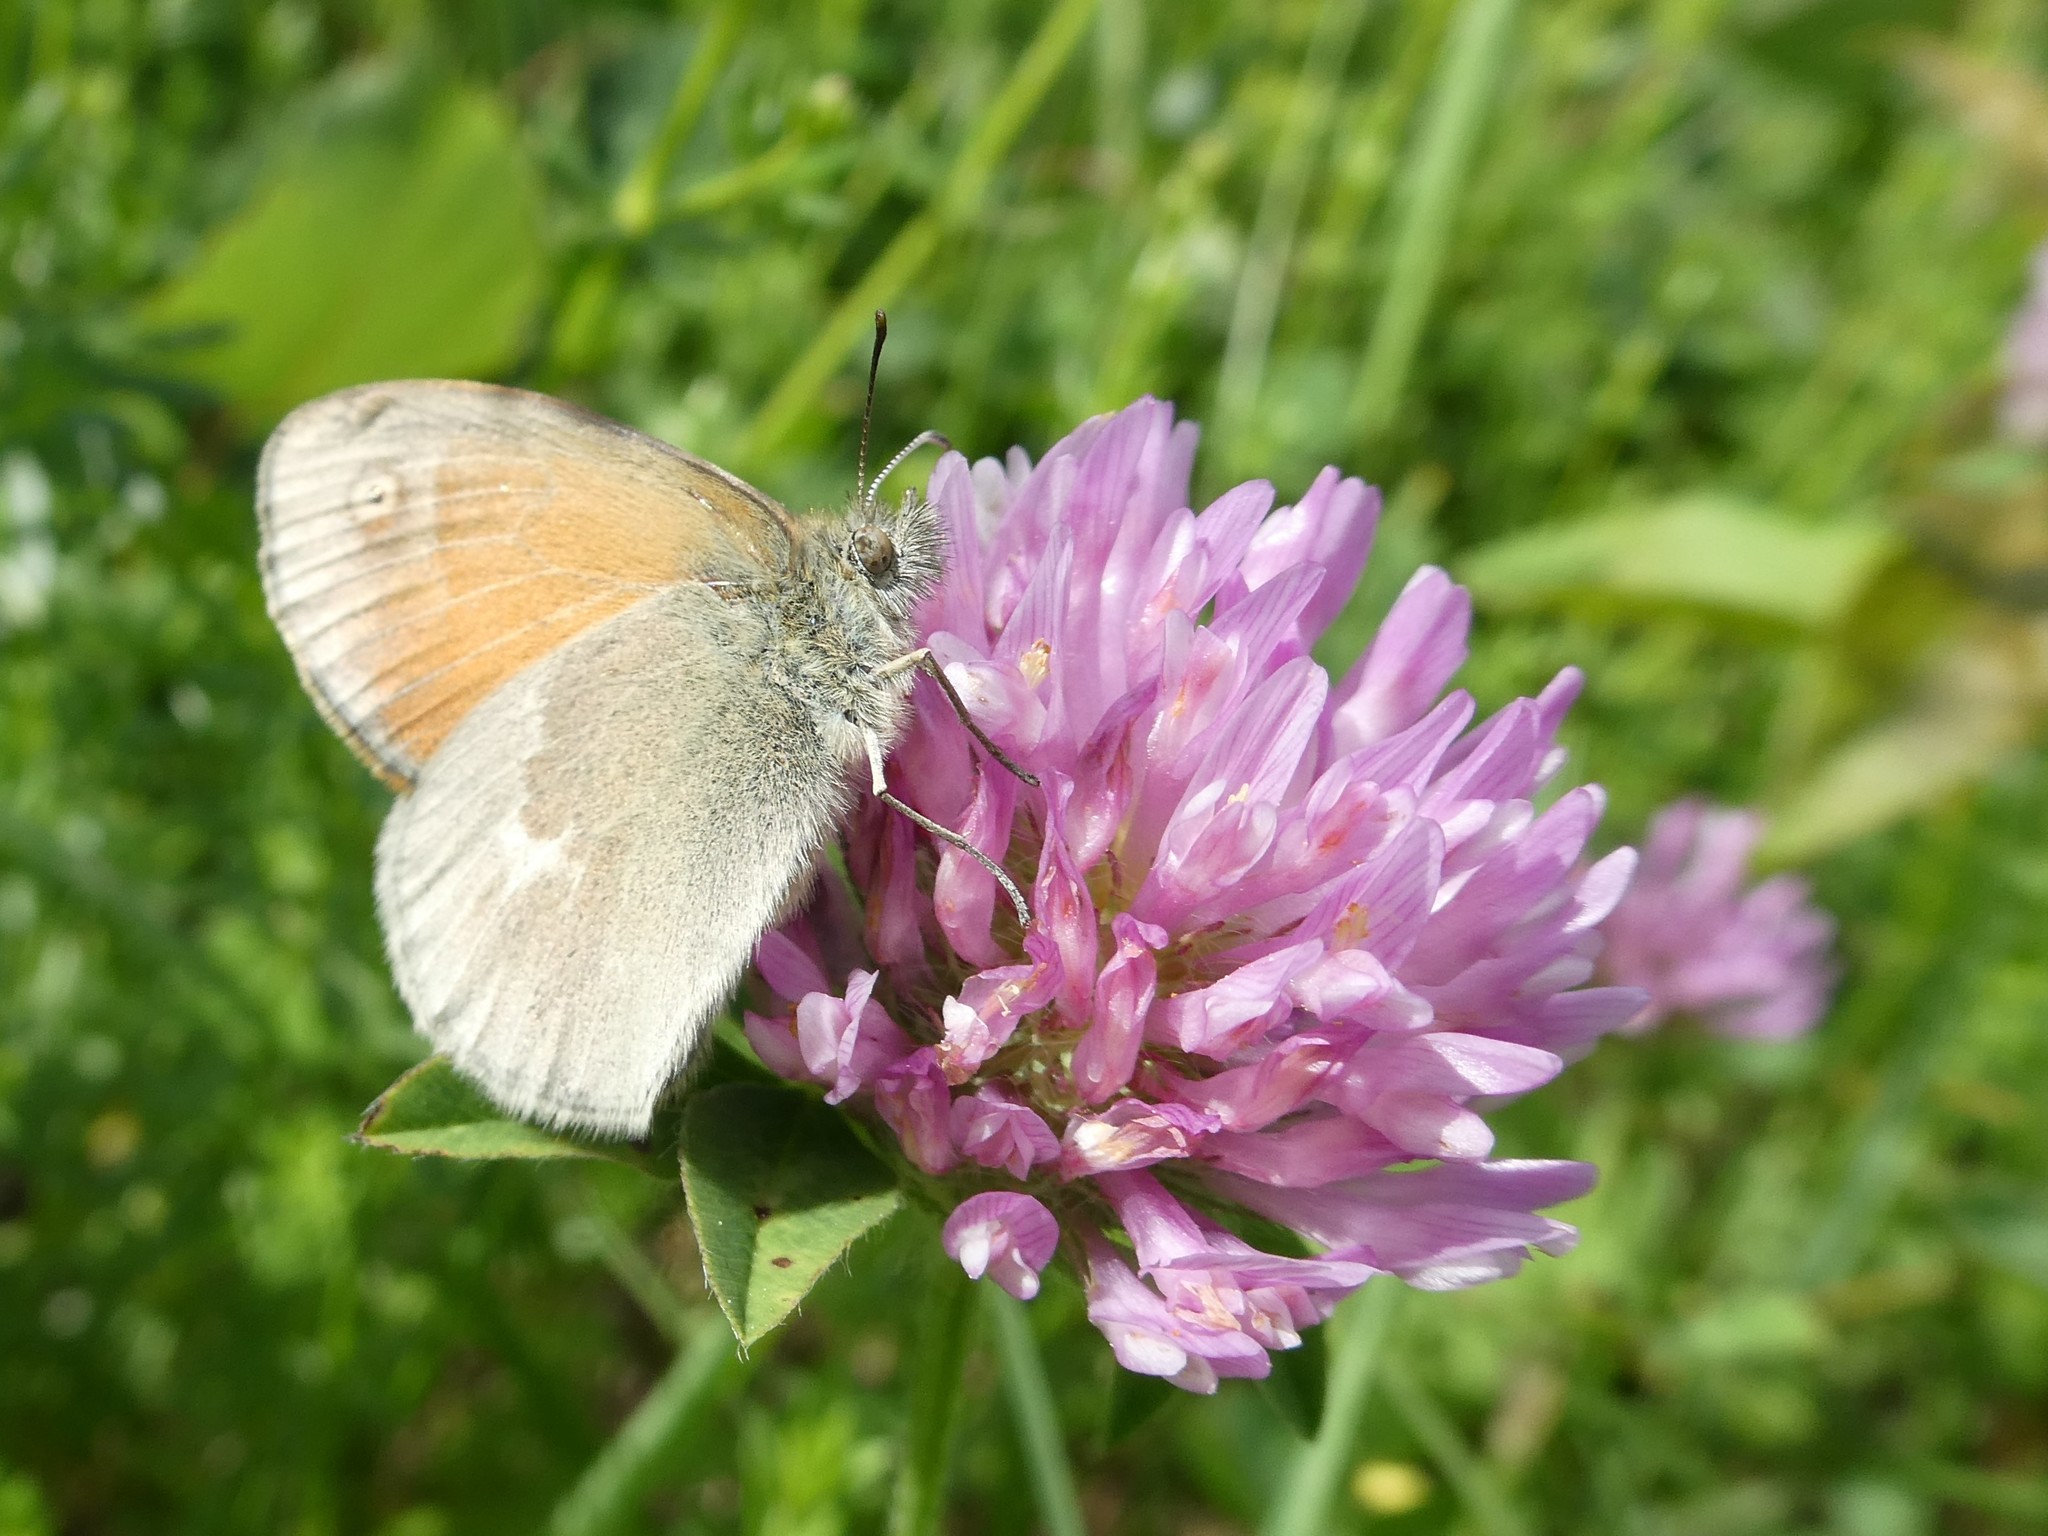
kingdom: Animalia
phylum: Arthropoda
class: Insecta
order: Lepidoptera
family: Nymphalidae
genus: Coenonympha
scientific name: Coenonympha california
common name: Common ringlet
